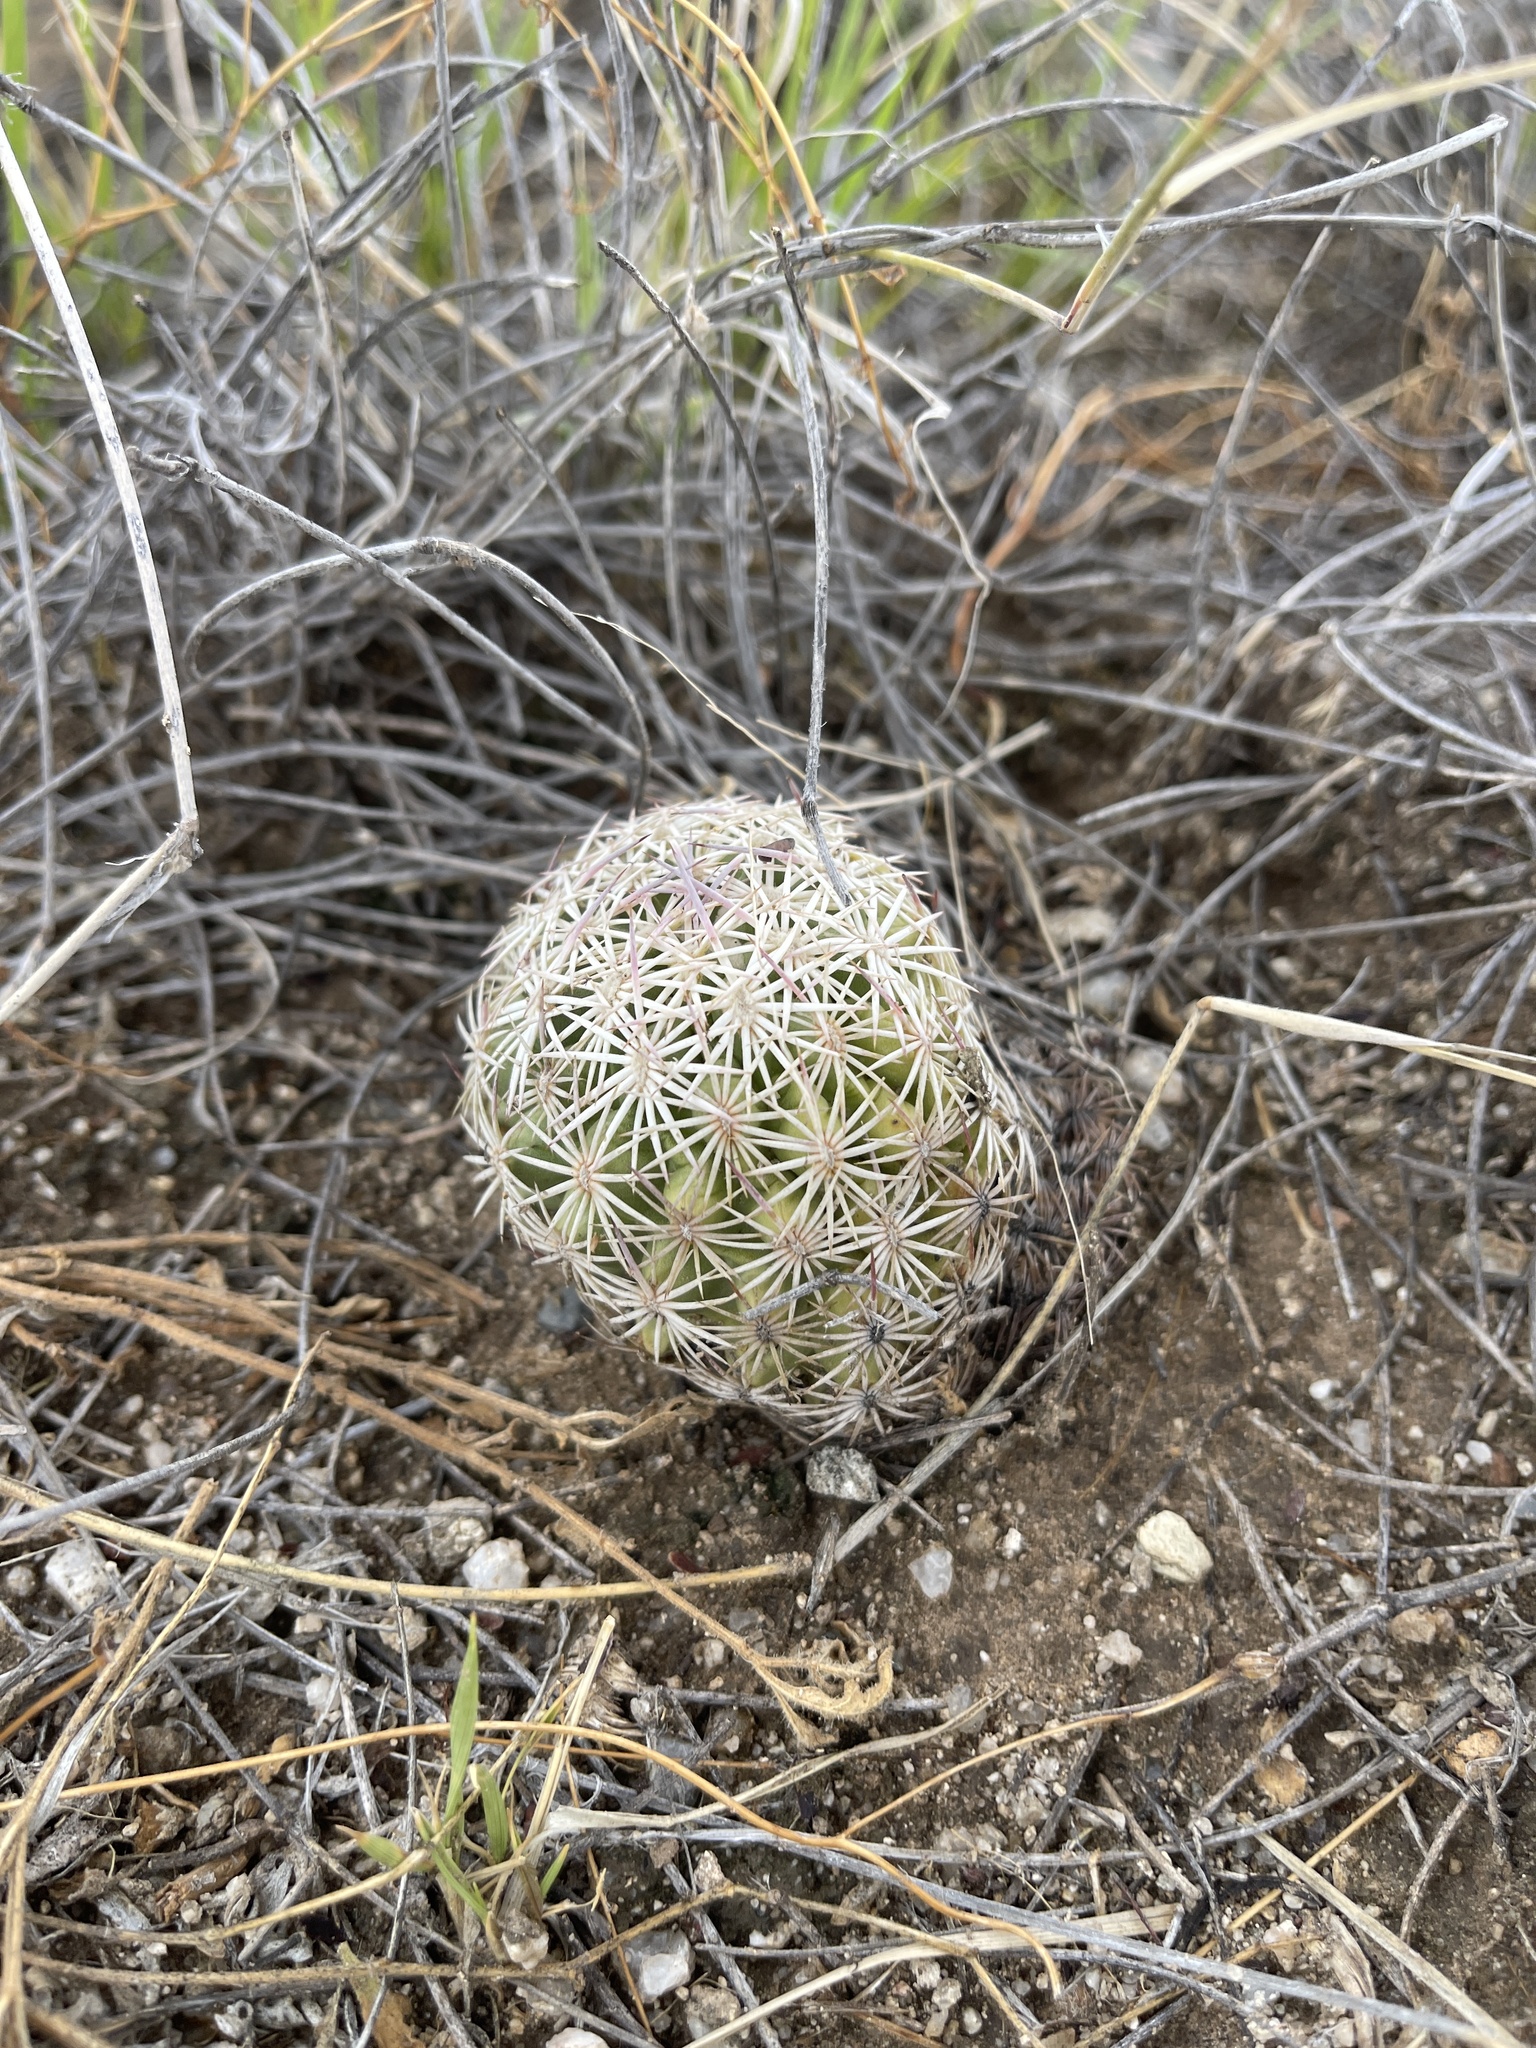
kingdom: Plantae
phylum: Tracheophyta
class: Magnoliopsida
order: Caryophyllales
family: Cactaceae
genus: Sclerocactus
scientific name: Sclerocactus johnsonii
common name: Eight-spine fishhook cactus
